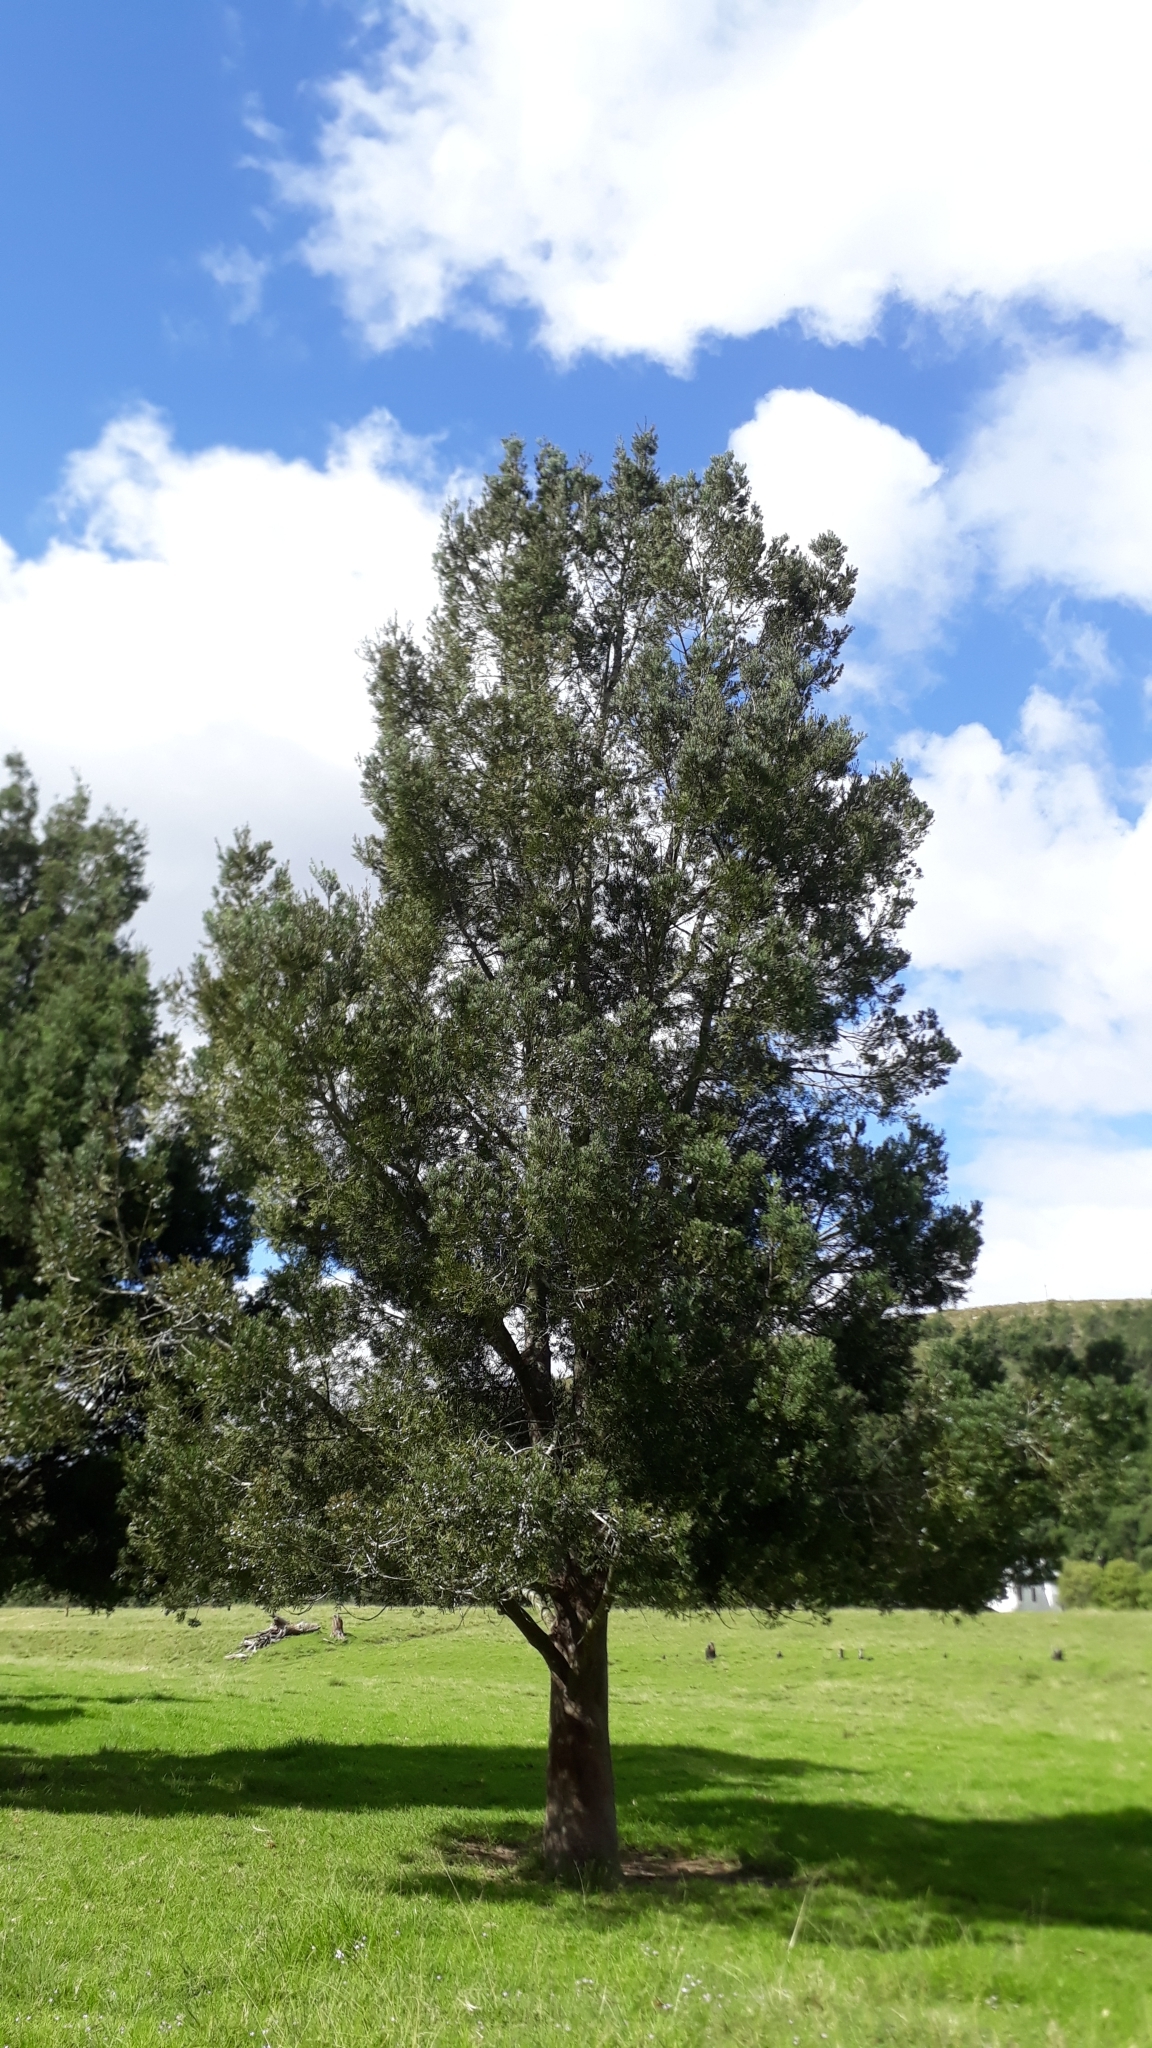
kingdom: Plantae
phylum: Tracheophyta
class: Pinopsida
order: Pinales
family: Podocarpaceae
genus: Afrocarpus
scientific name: Afrocarpus falcatus
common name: Bastard yellowwood
